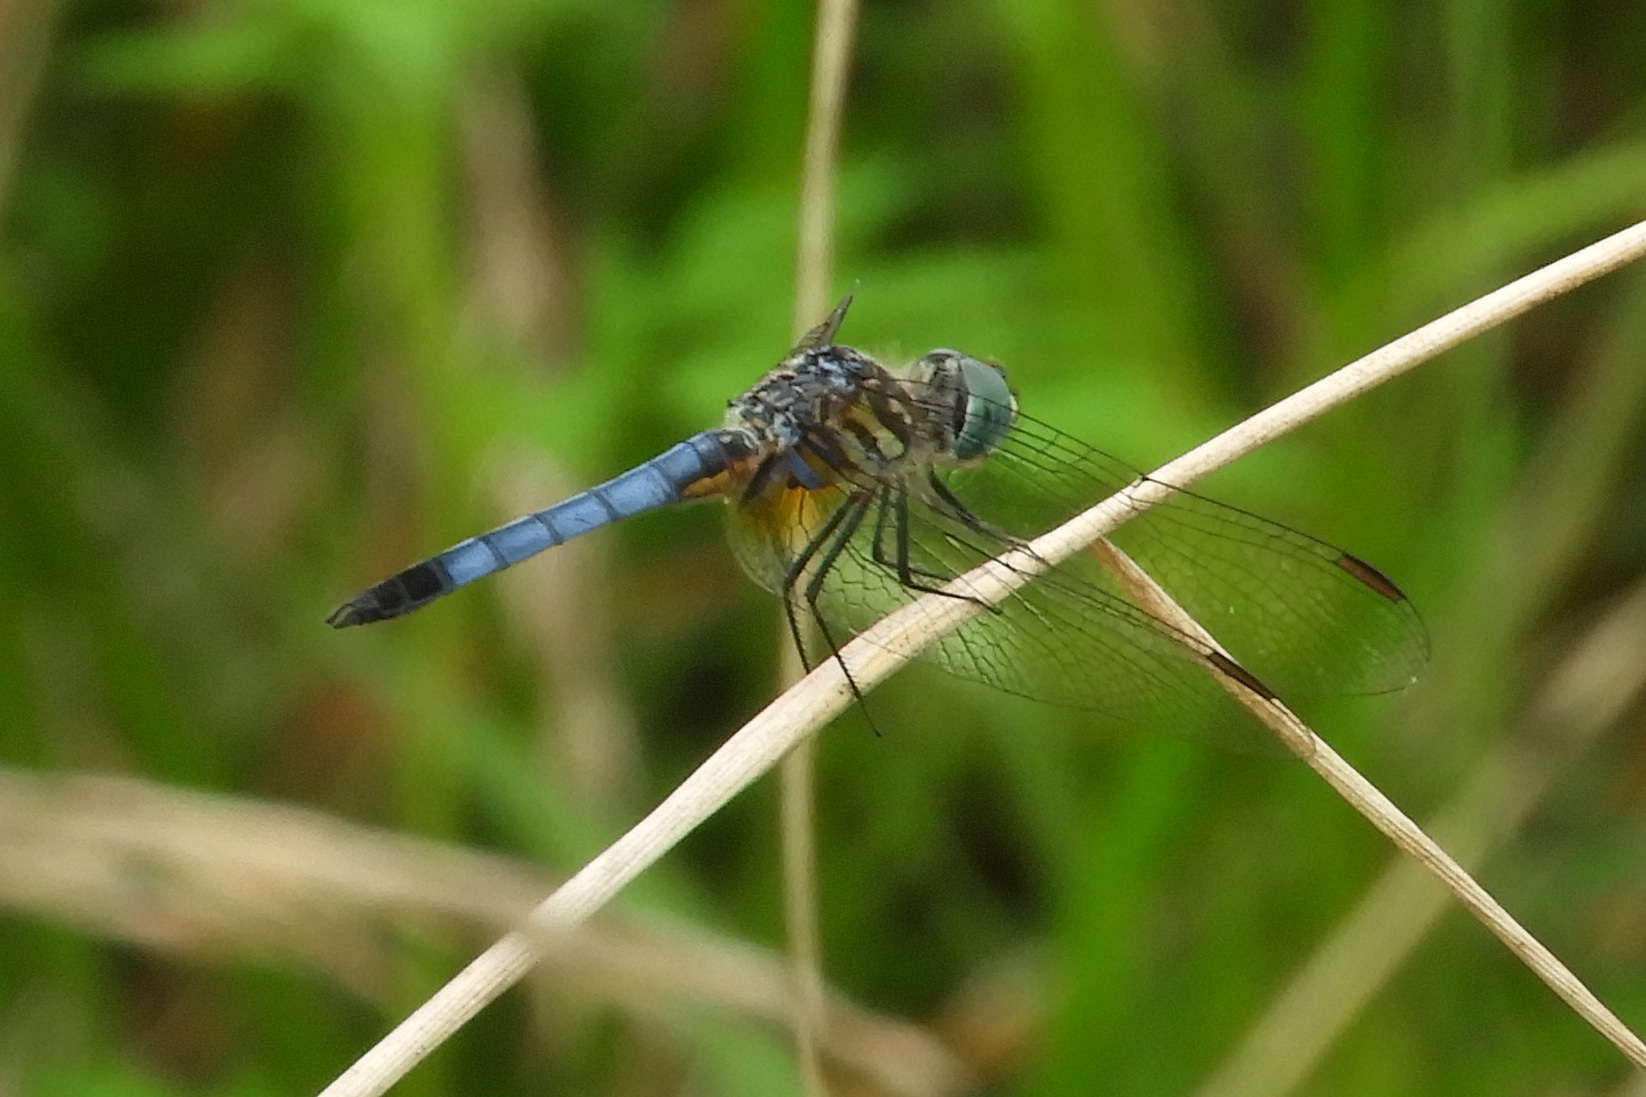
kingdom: Animalia
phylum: Arthropoda
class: Insecta
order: Odonata
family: Libellulidae
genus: Pachydiplax
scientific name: Pachydiplax longipennis
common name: Blue dasher
